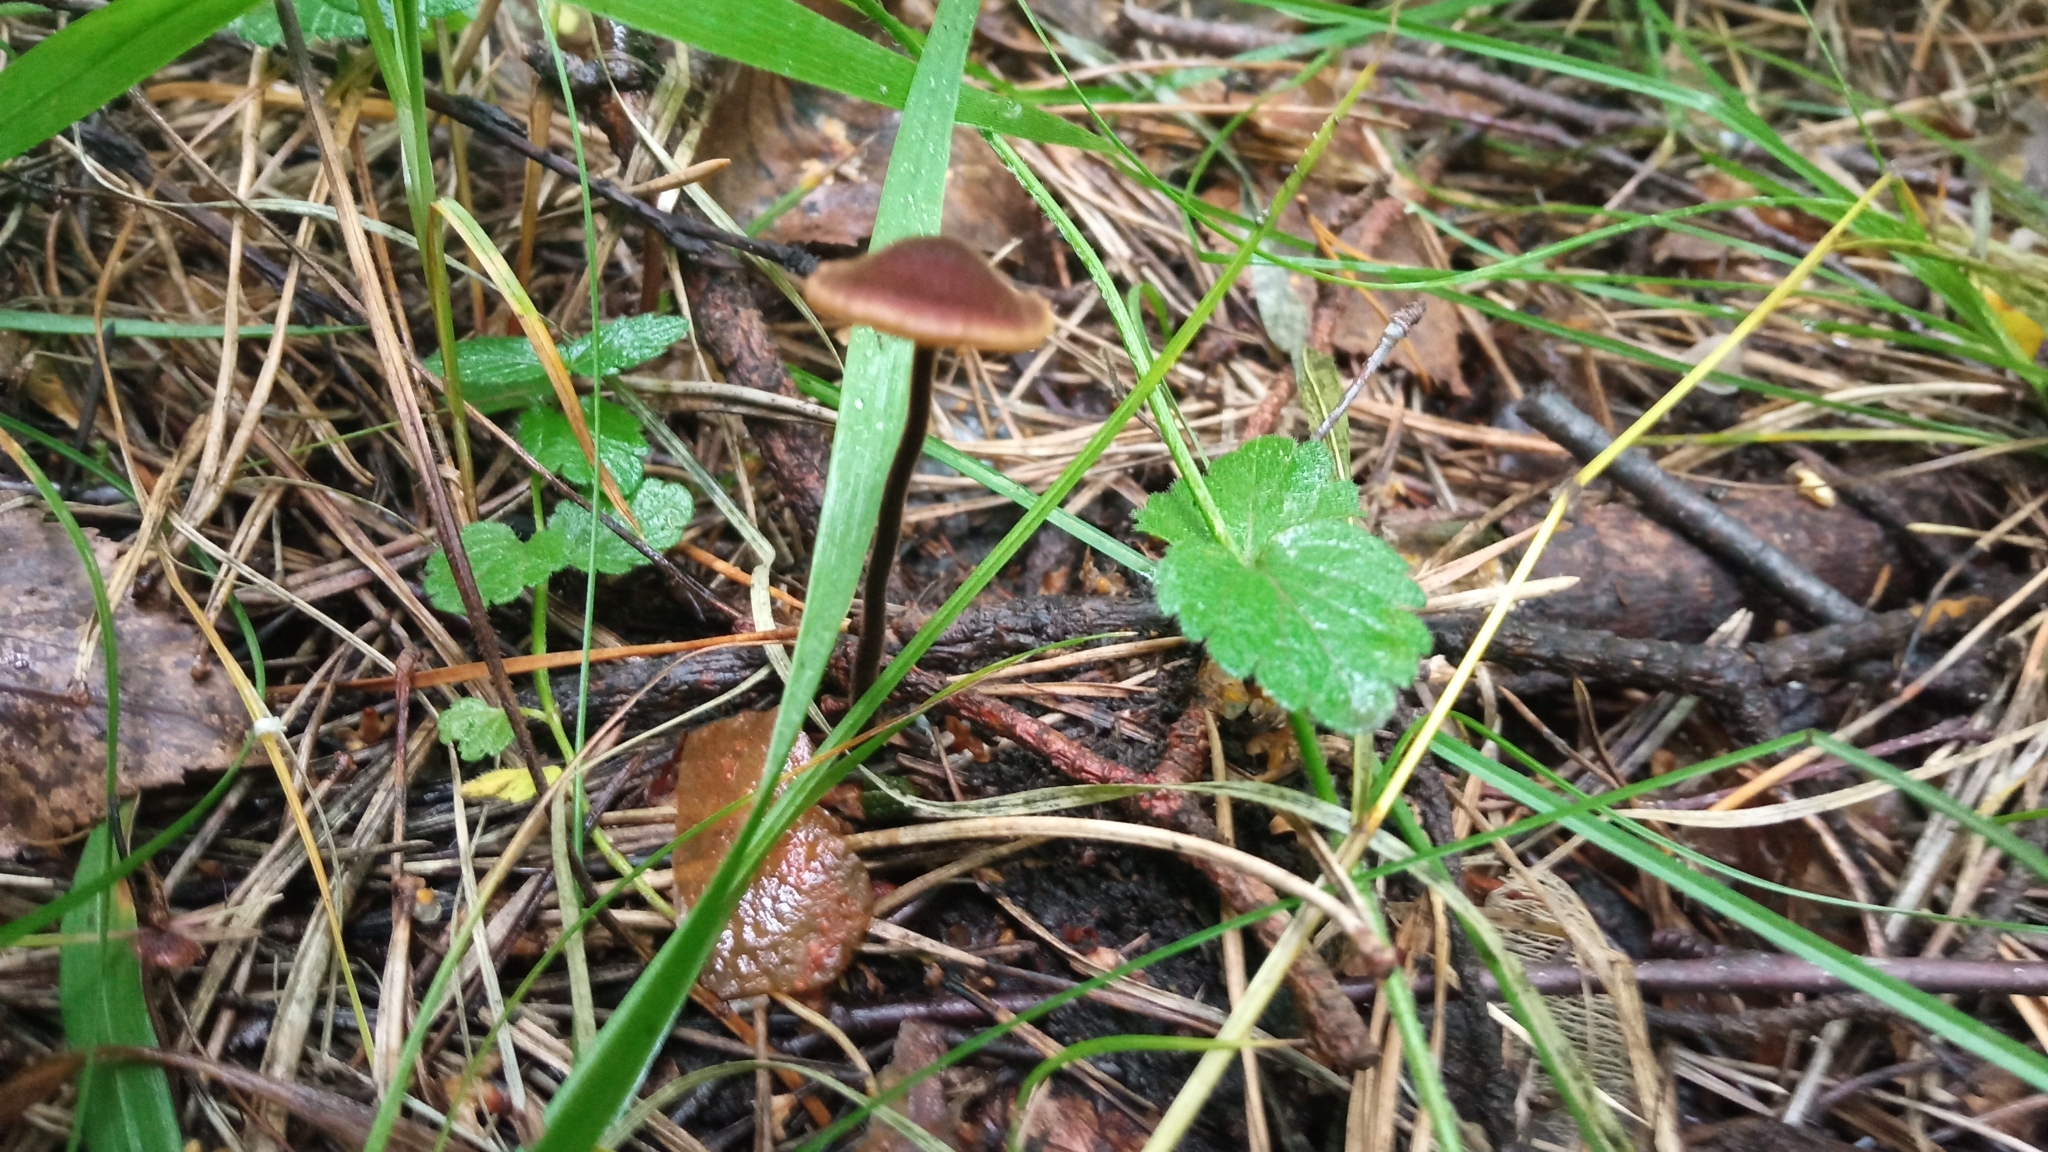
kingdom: Fungi
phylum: Basidiomycota
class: Agaricomycetes
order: Russulales
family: Auriscalpiaceae
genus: Auriscalpium
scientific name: Auriscalpium vulgare
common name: Earpick fungus
